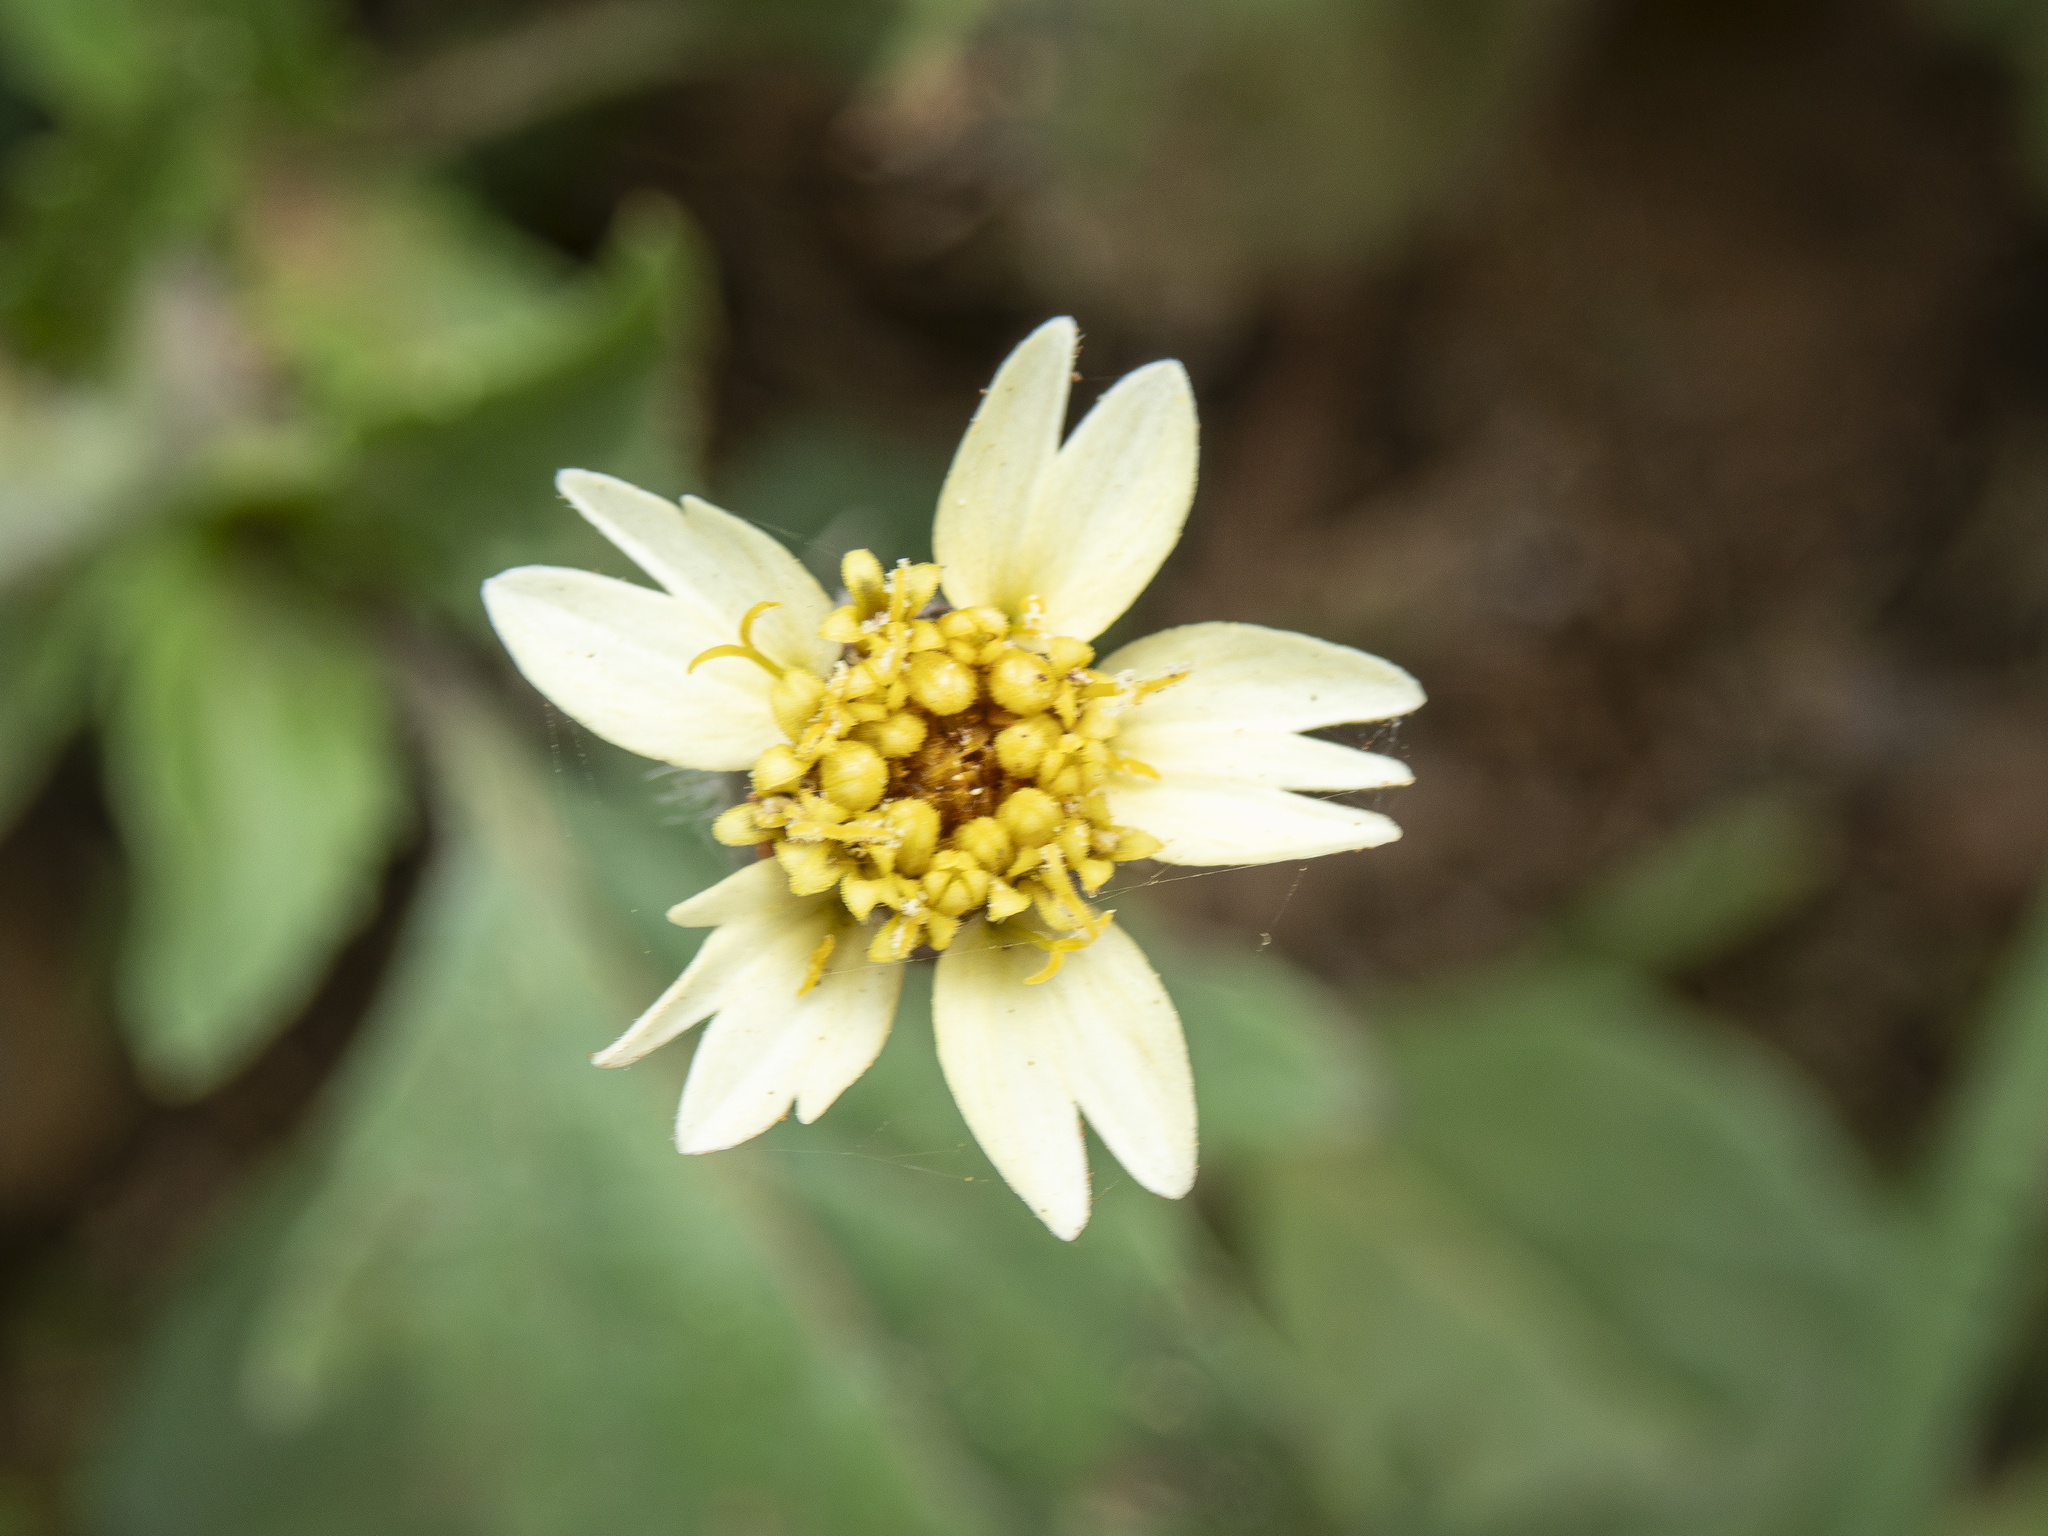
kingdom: Plantae
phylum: Tracheophyta
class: Magnoliopsida
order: Asterales
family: Asteraceae
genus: Tridax
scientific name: Tridax procumbens
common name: Coatbuttons
